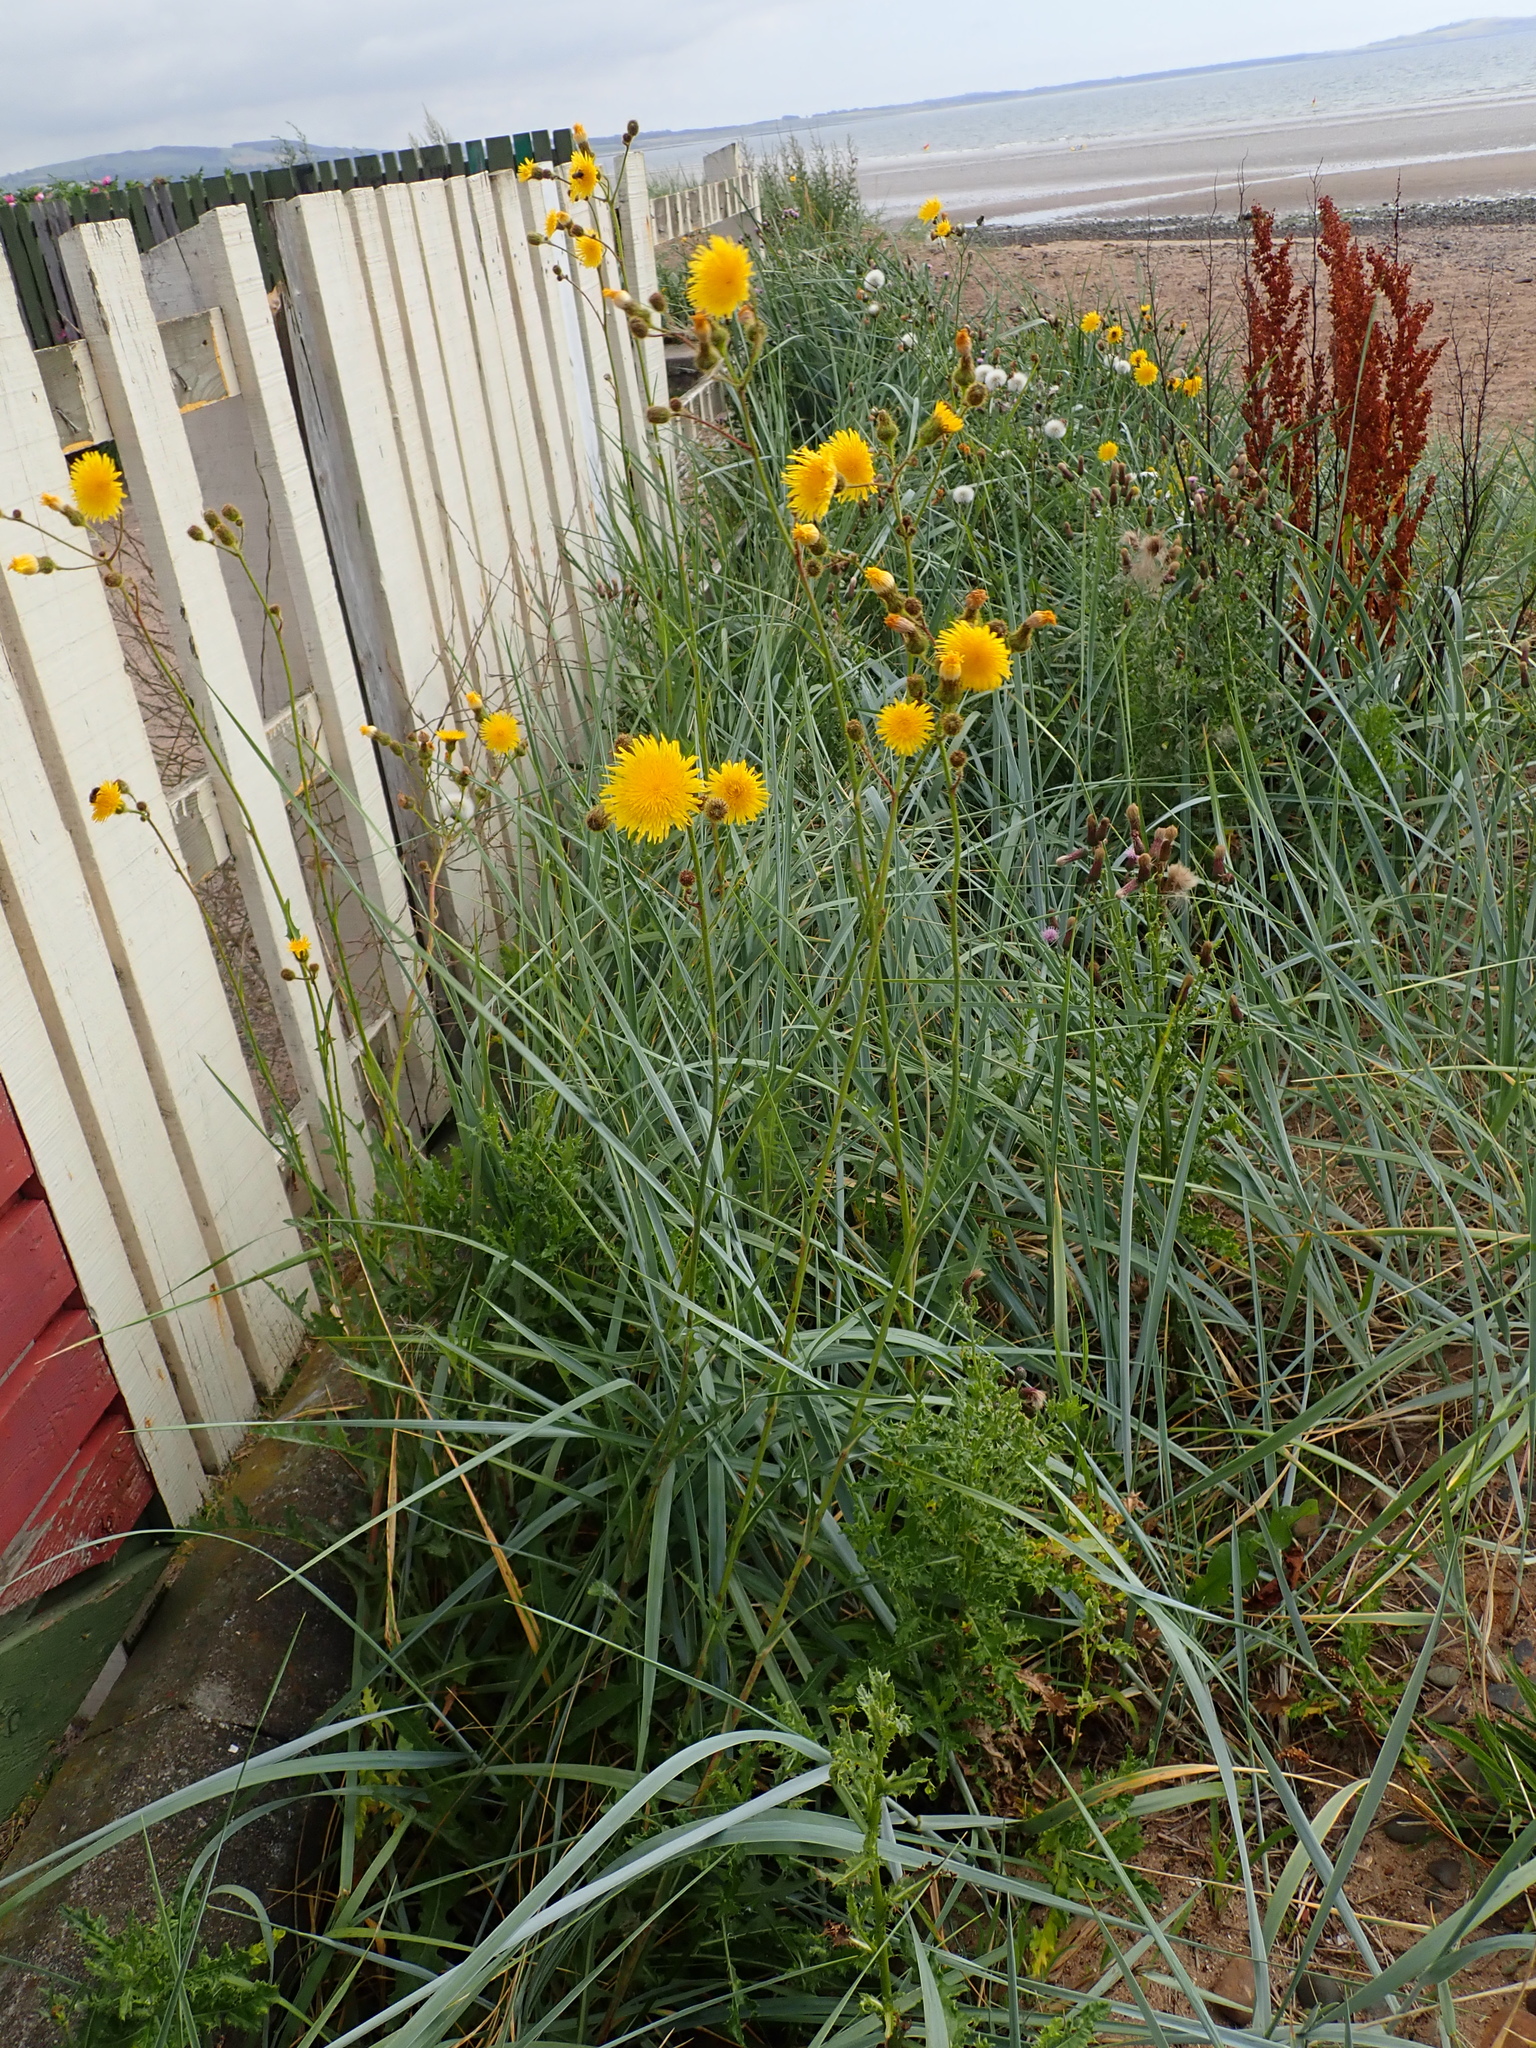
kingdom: Plantae
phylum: Tracheophyta
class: Magnoliopsida
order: Asterales
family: Asteraceae
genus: Sonchus
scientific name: Sonchus arvensis
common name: Perennial sow-thistle
